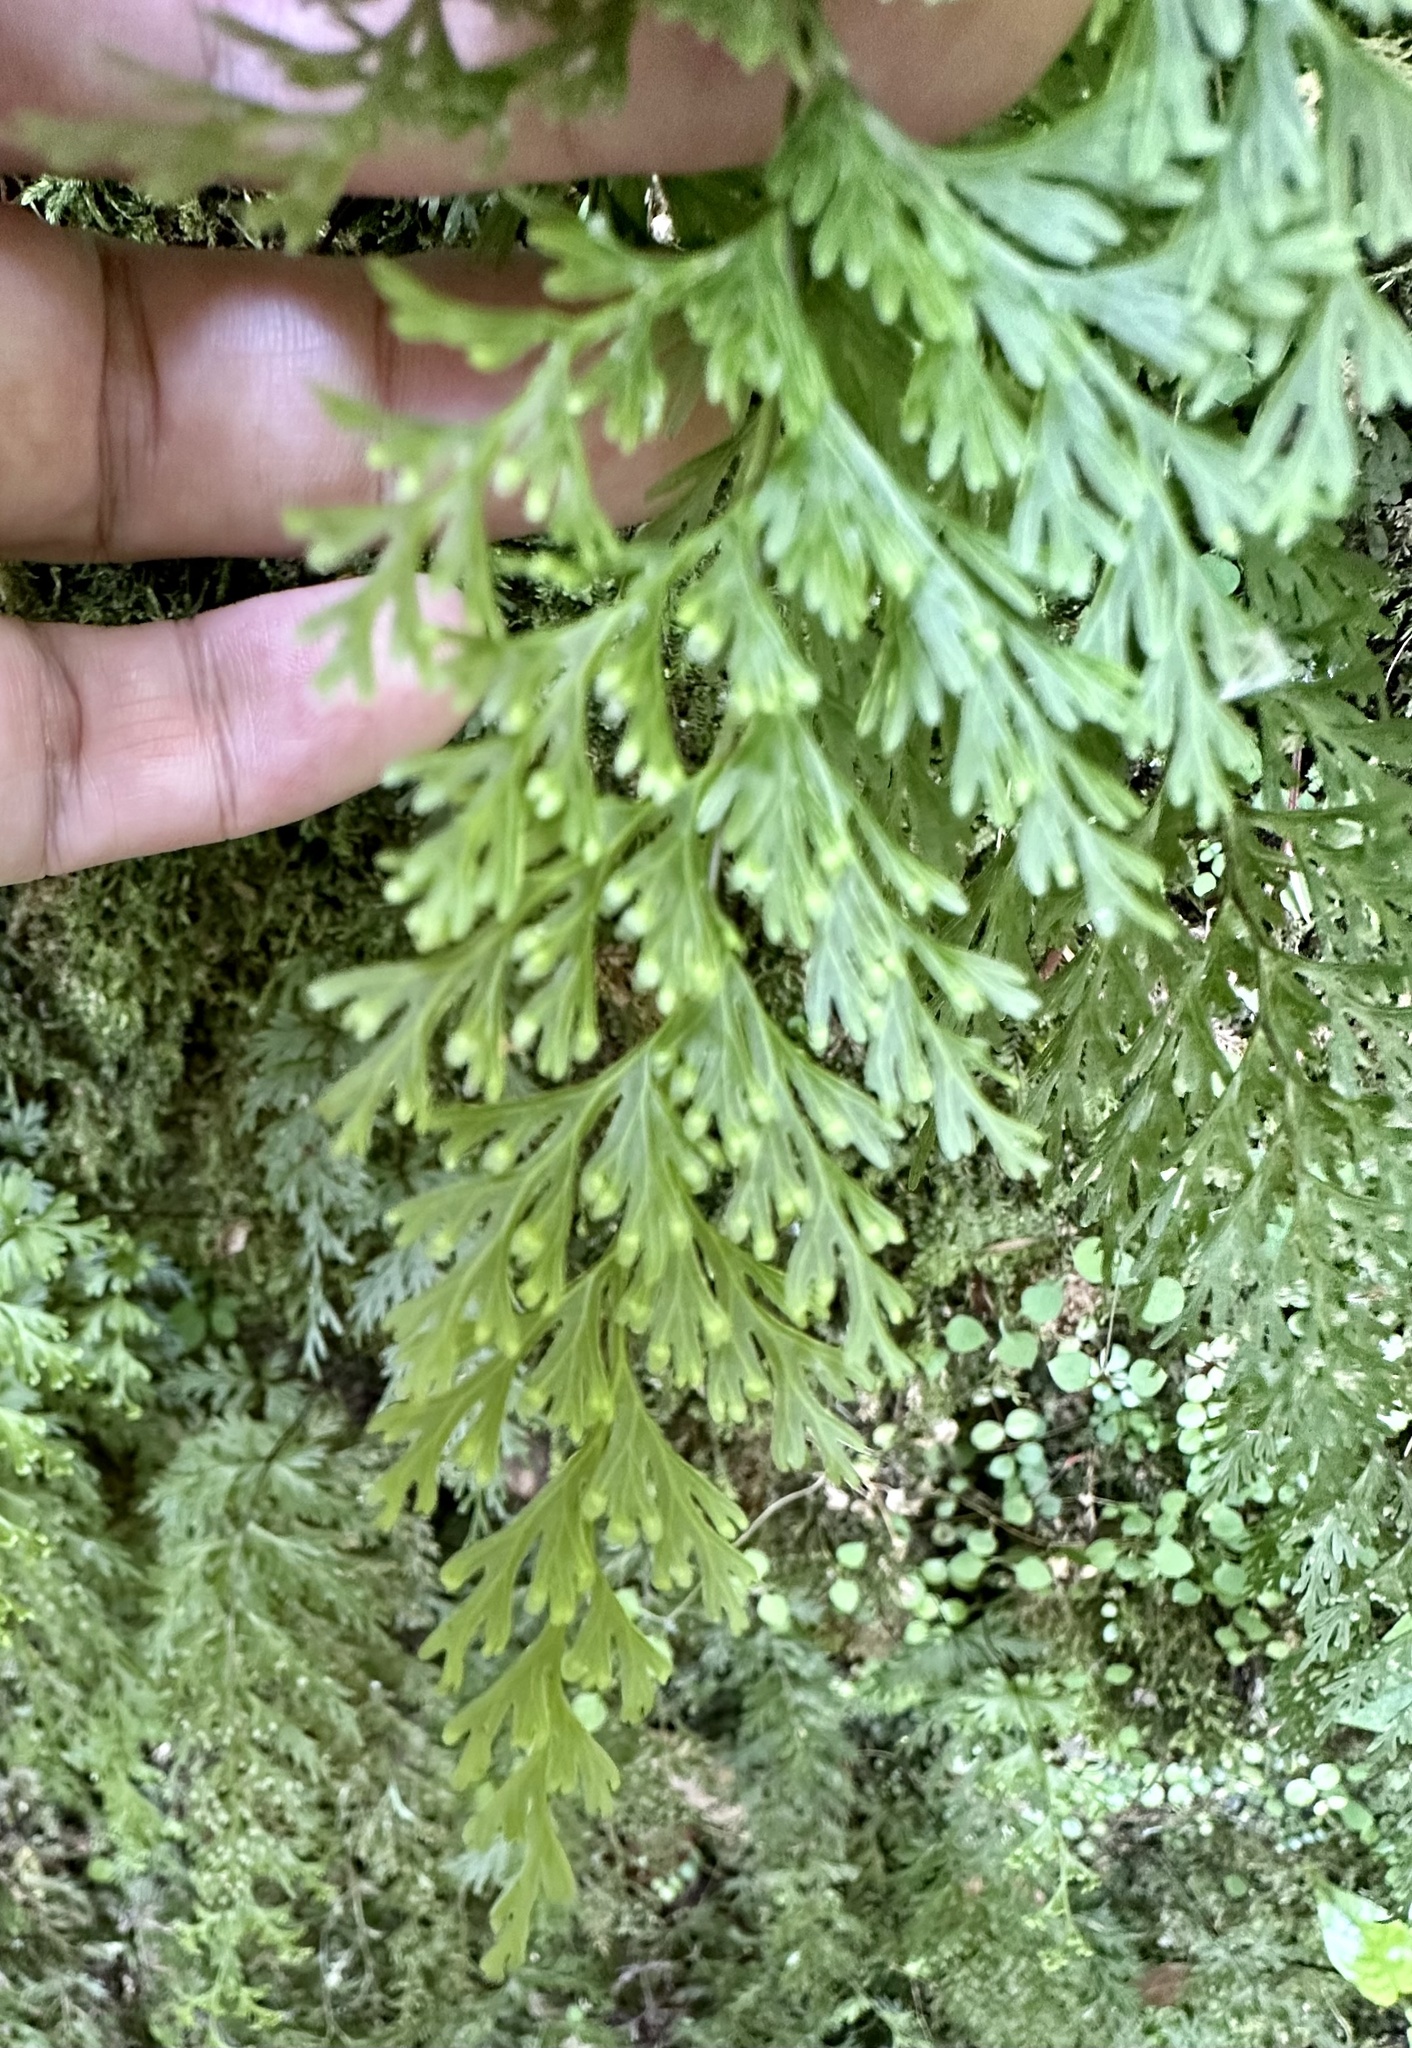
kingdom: Plantae
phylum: Tracheophyta
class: Polypodiopsida
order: Hymenophyllales
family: Hymenophyllaceae
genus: Hymenophyllum
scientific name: Hymenophyllum demissum
